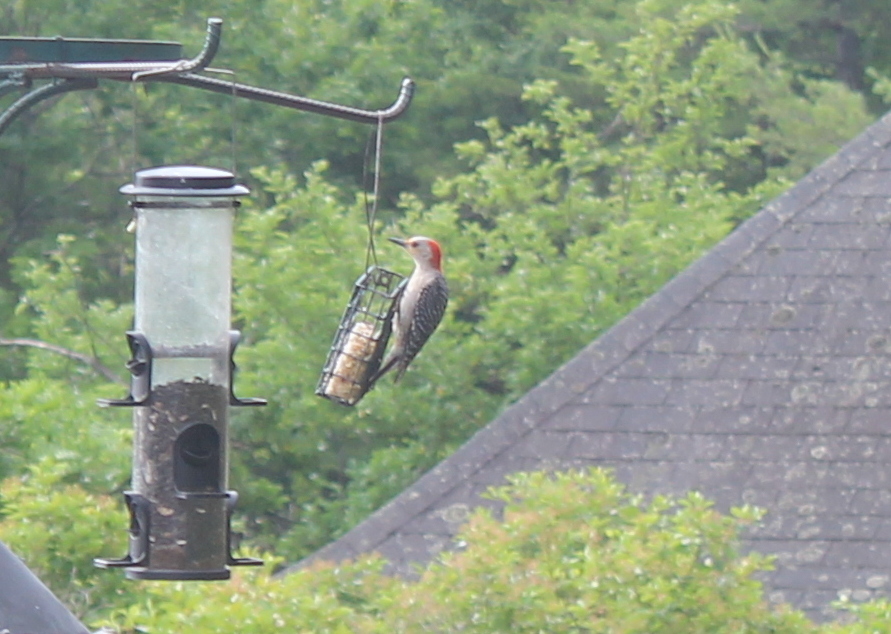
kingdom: Animalia
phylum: Chordata
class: Aves
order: Piciformes
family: Picidae
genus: Melanerpes
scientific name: Melanerpes carolinus
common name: Red-bellied woodpecker
